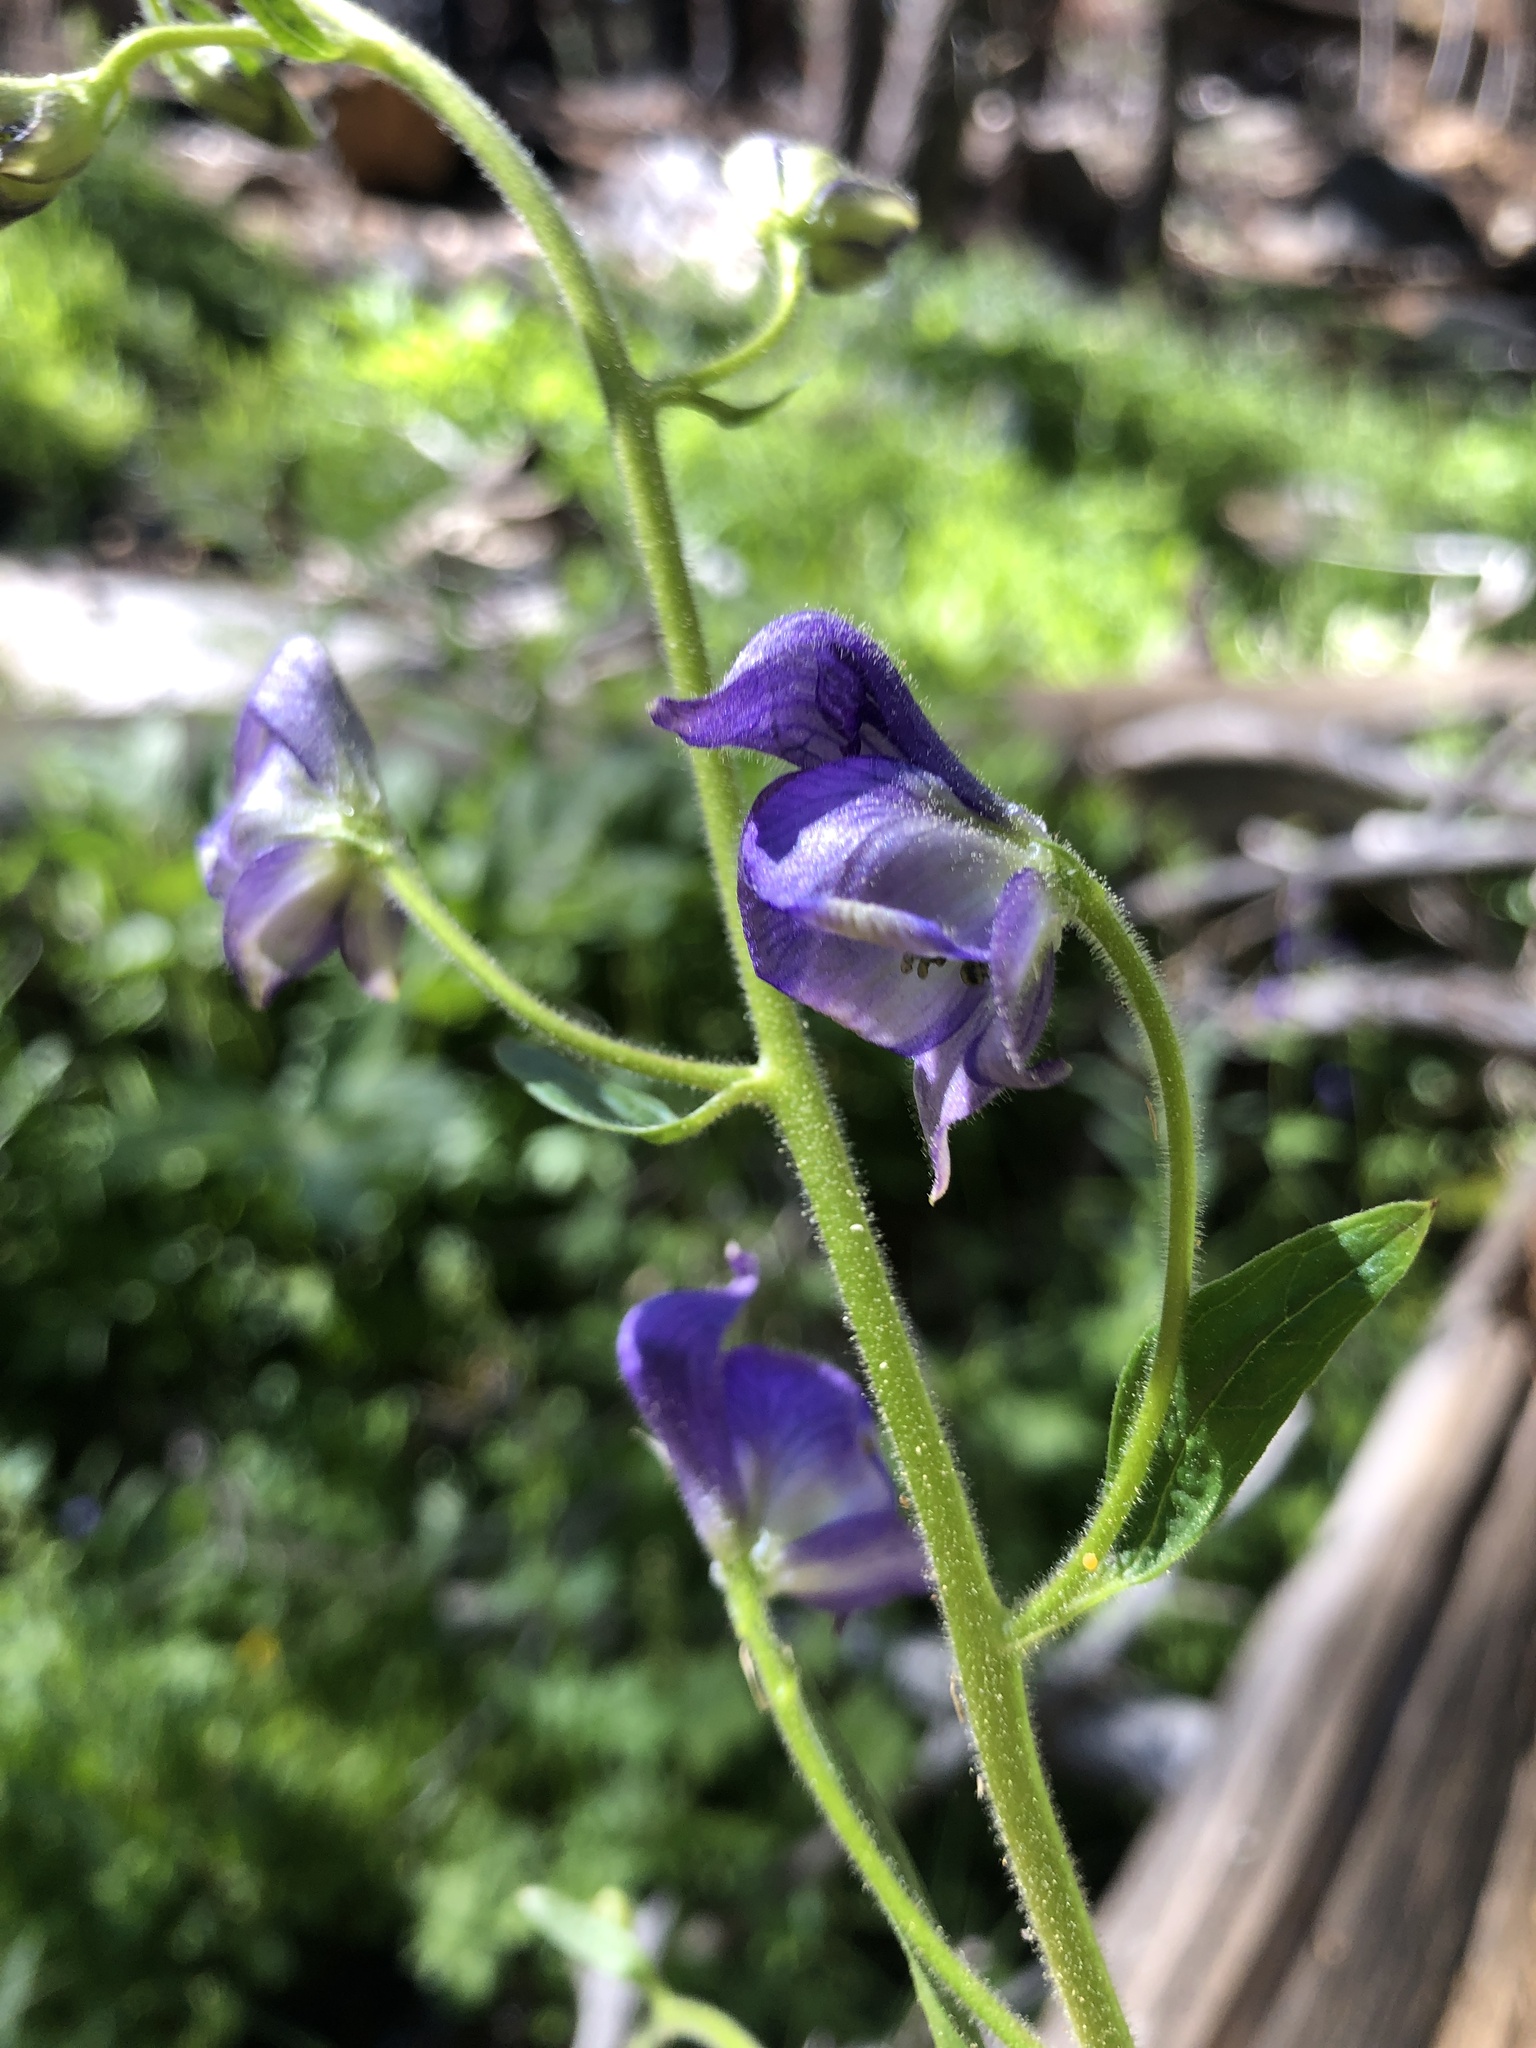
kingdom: Plantae
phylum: Tracheophyta
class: Magnoliopsida
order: Ranunculales
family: Ranunculaceae
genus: Aconitum
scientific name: Aconitum columbianum
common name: Columbia aconite
